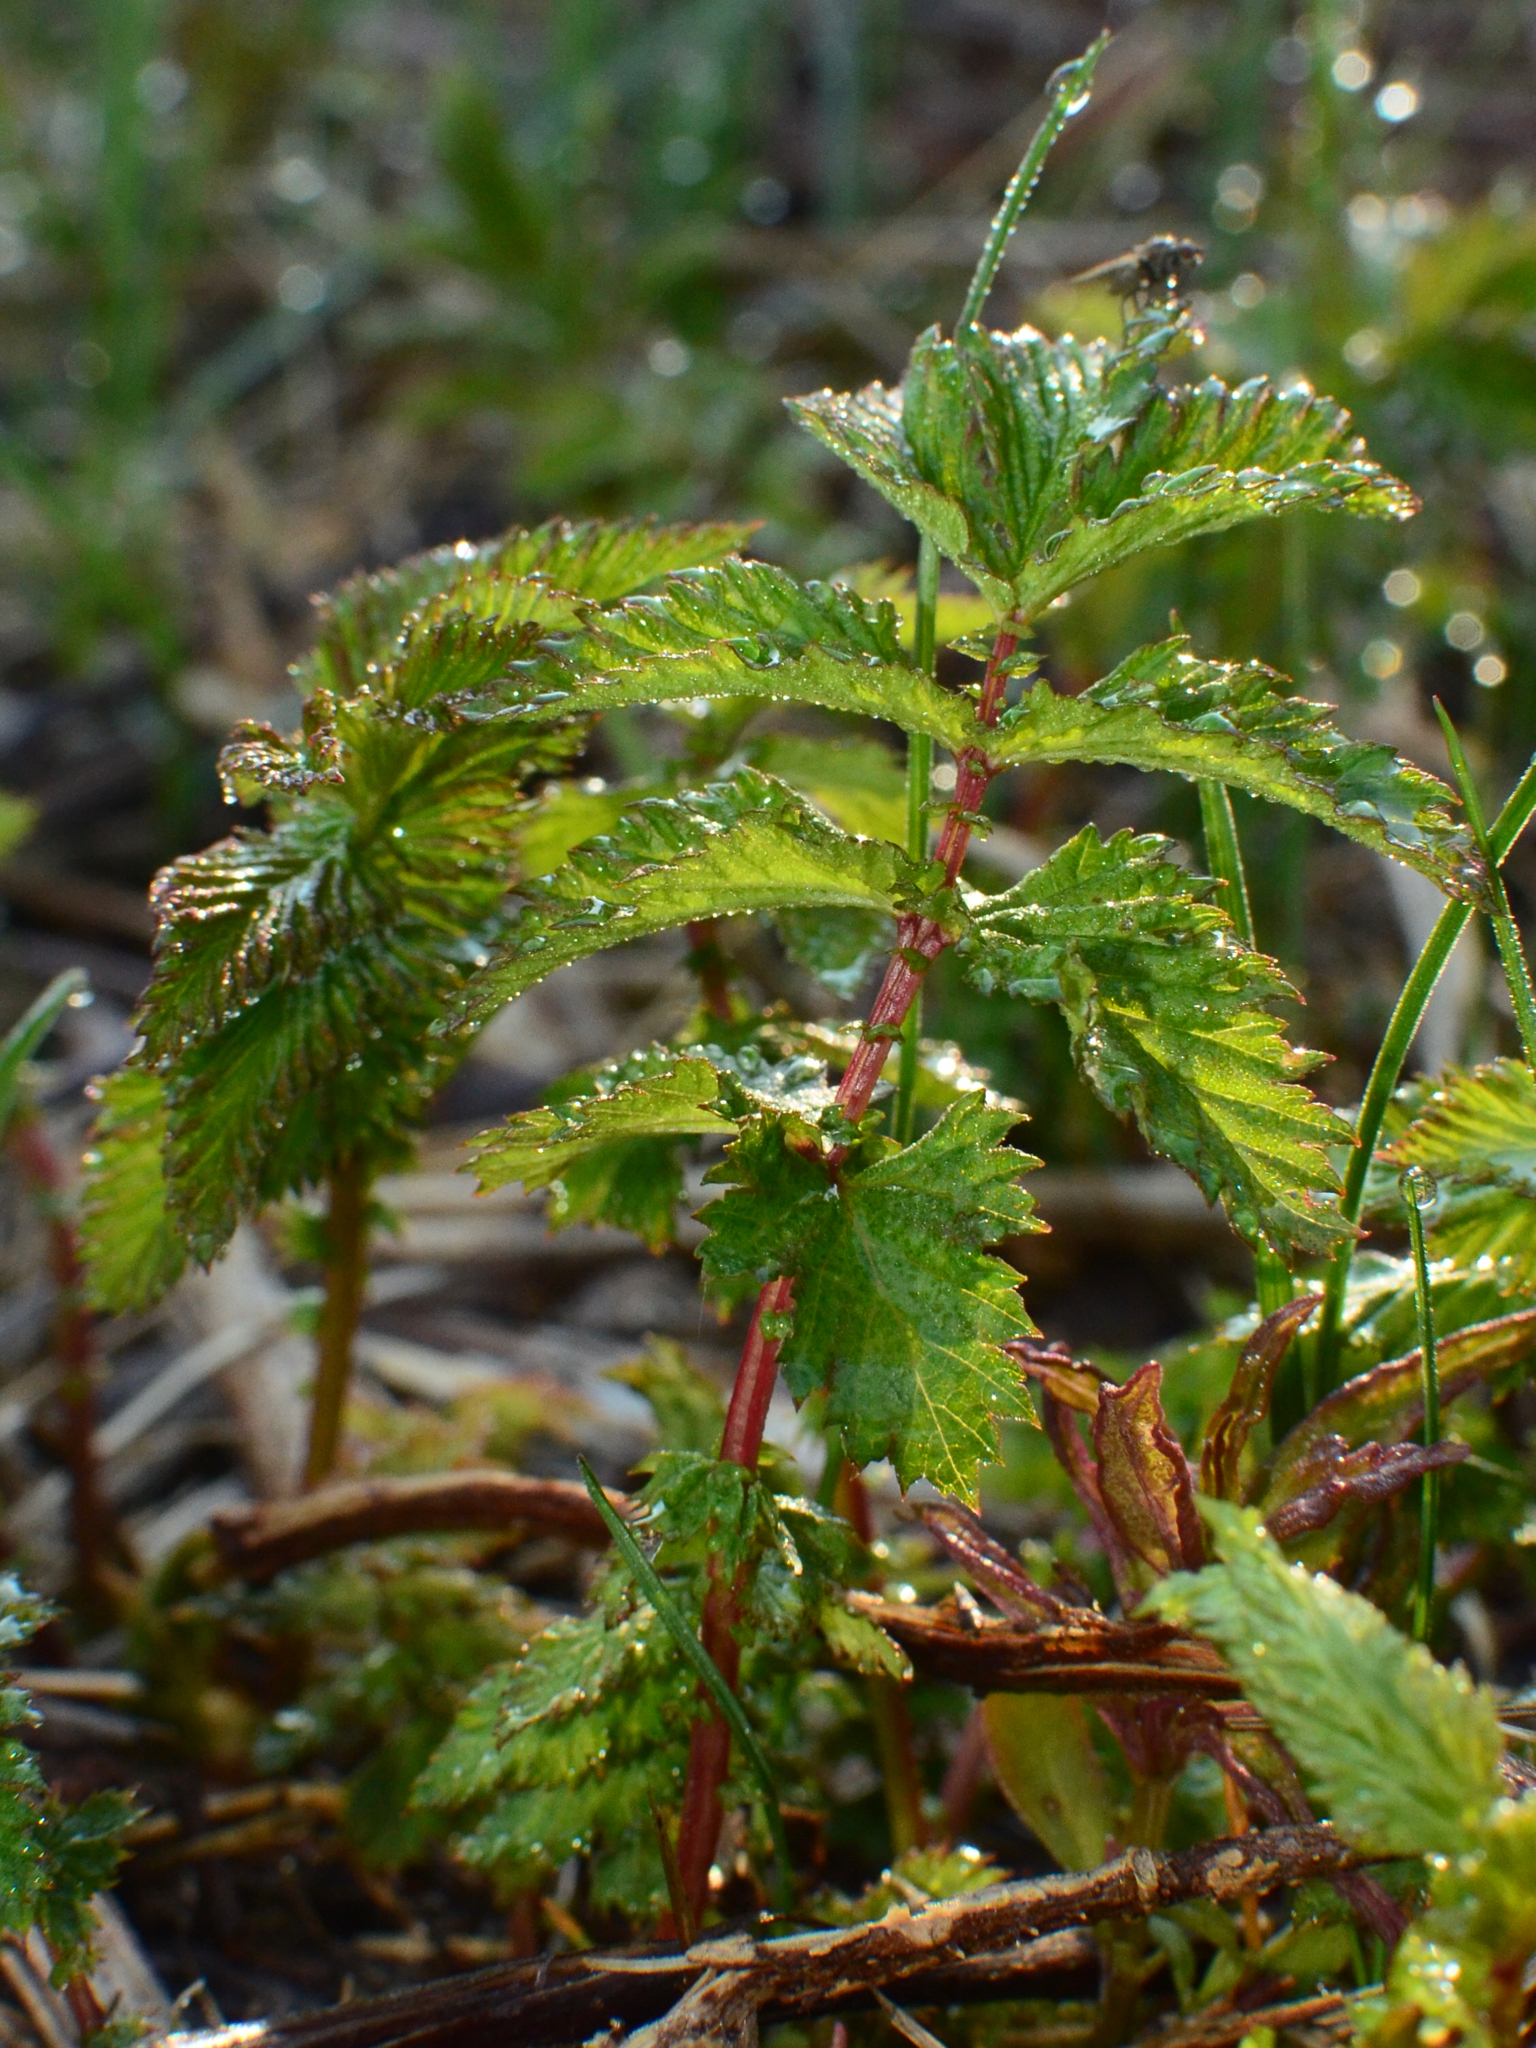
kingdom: Plantae
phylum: Tracheophyta
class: Magnoliopsida
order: Rosales
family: Rosaceae
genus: Filipendula
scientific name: Filipendula ulmaria
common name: Meadowsweet
